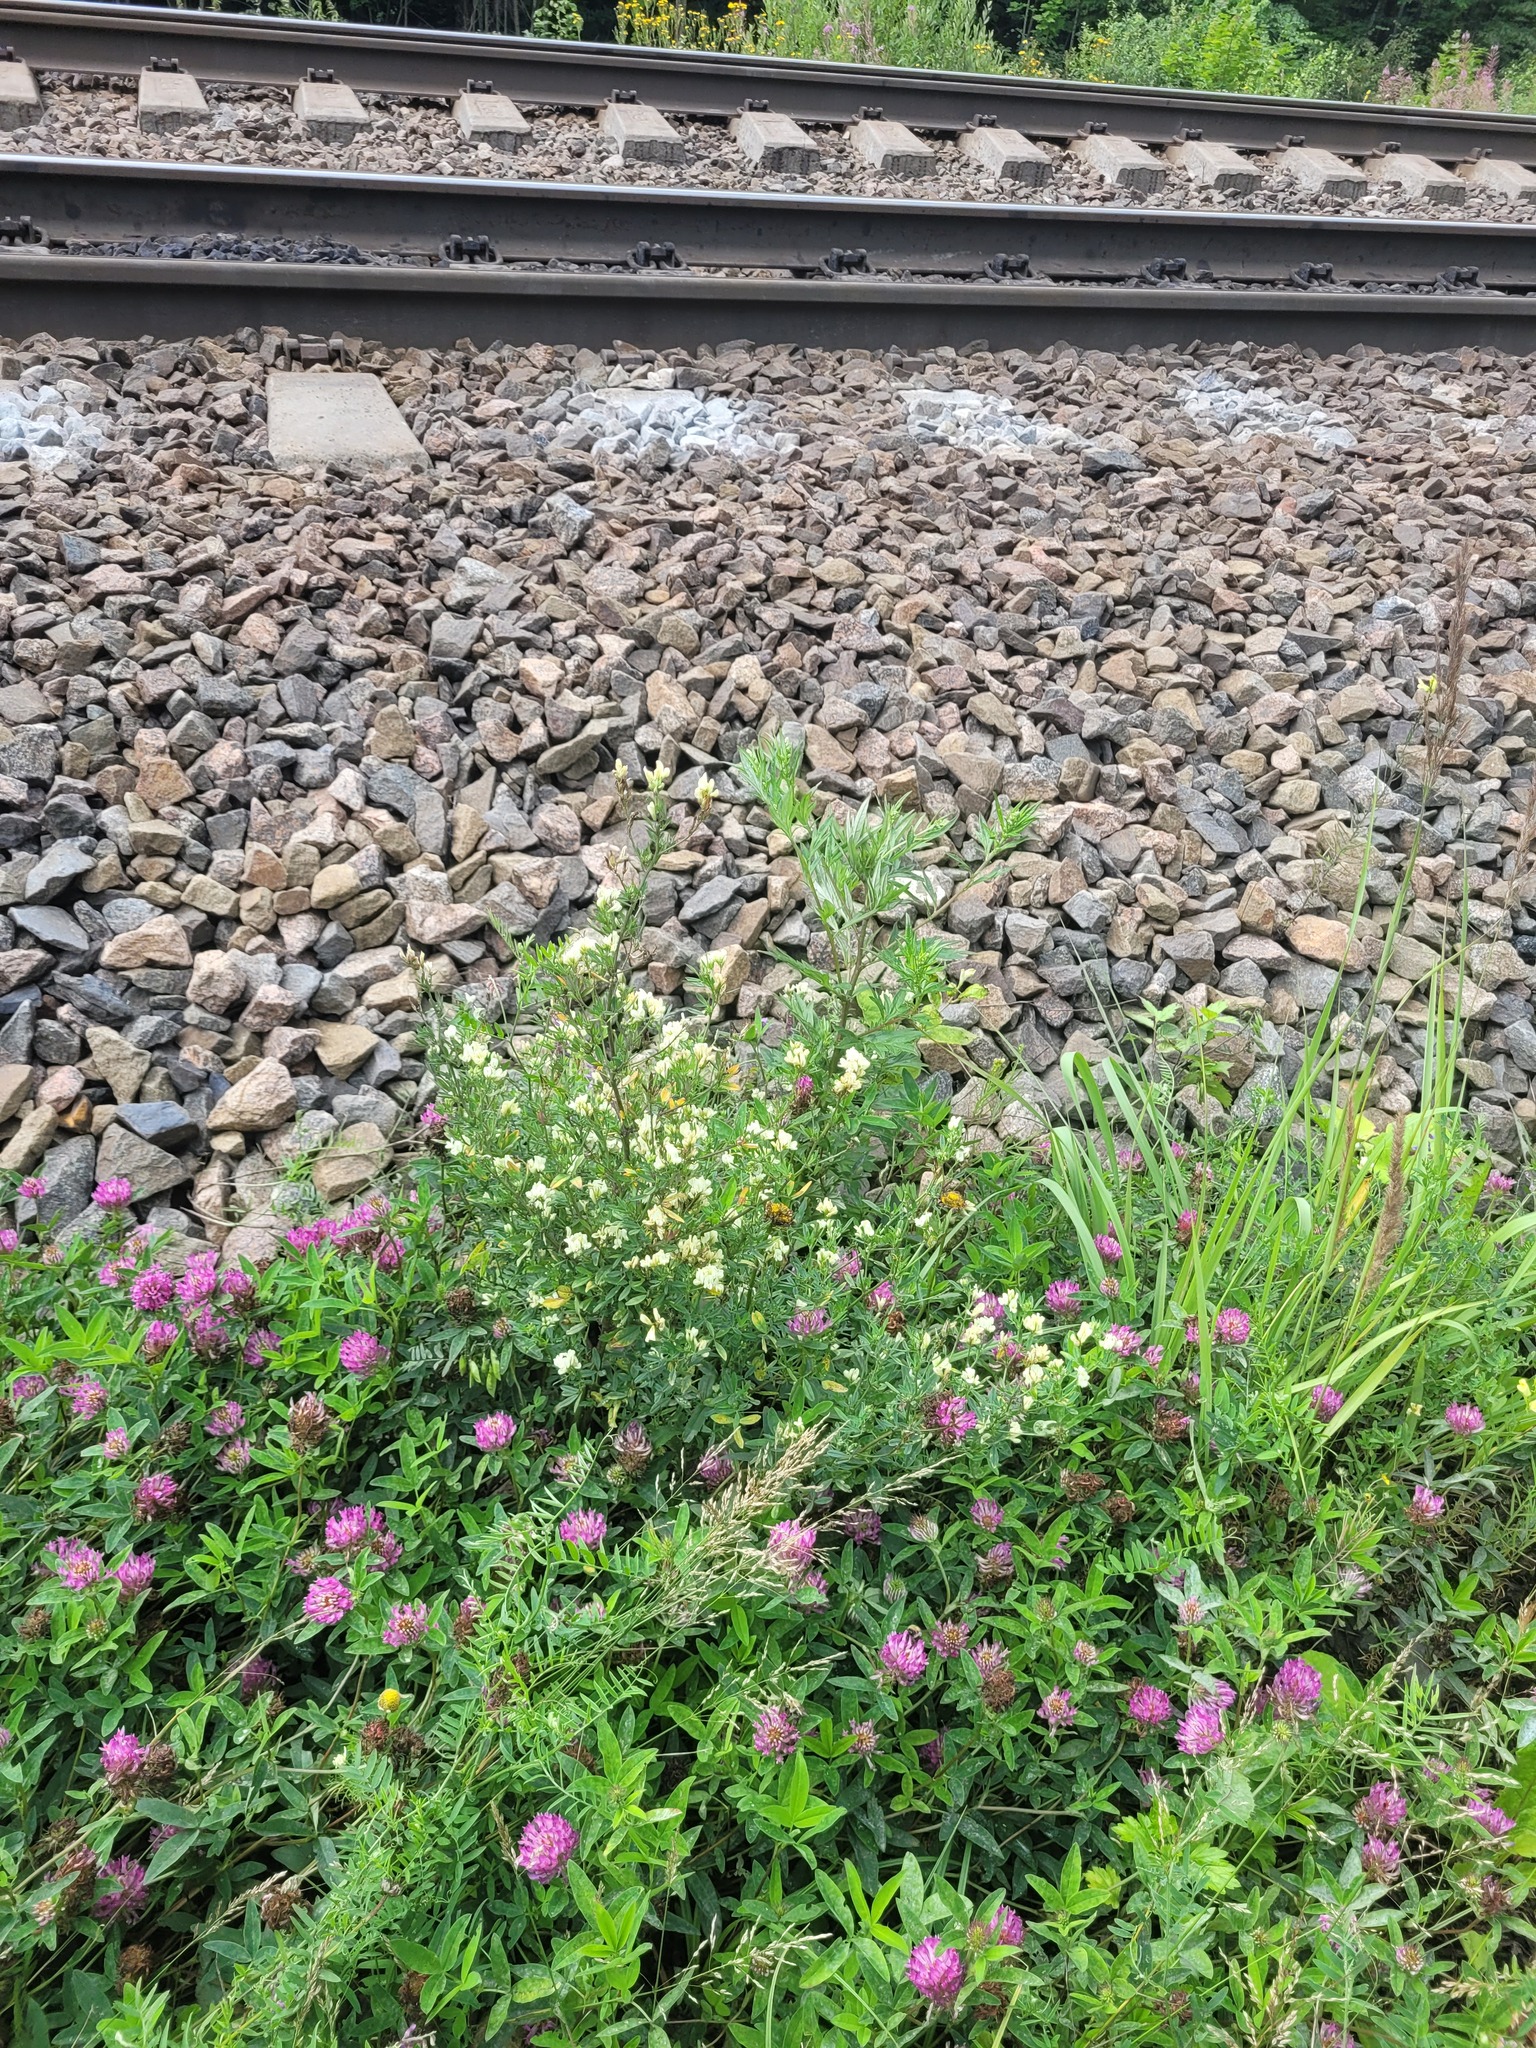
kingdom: Plantae
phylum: Tracheophyta
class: Magnoliopsida
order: Fabales
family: Fabaceae
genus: Medicago
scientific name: Medicago varia
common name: Sand lucerne
